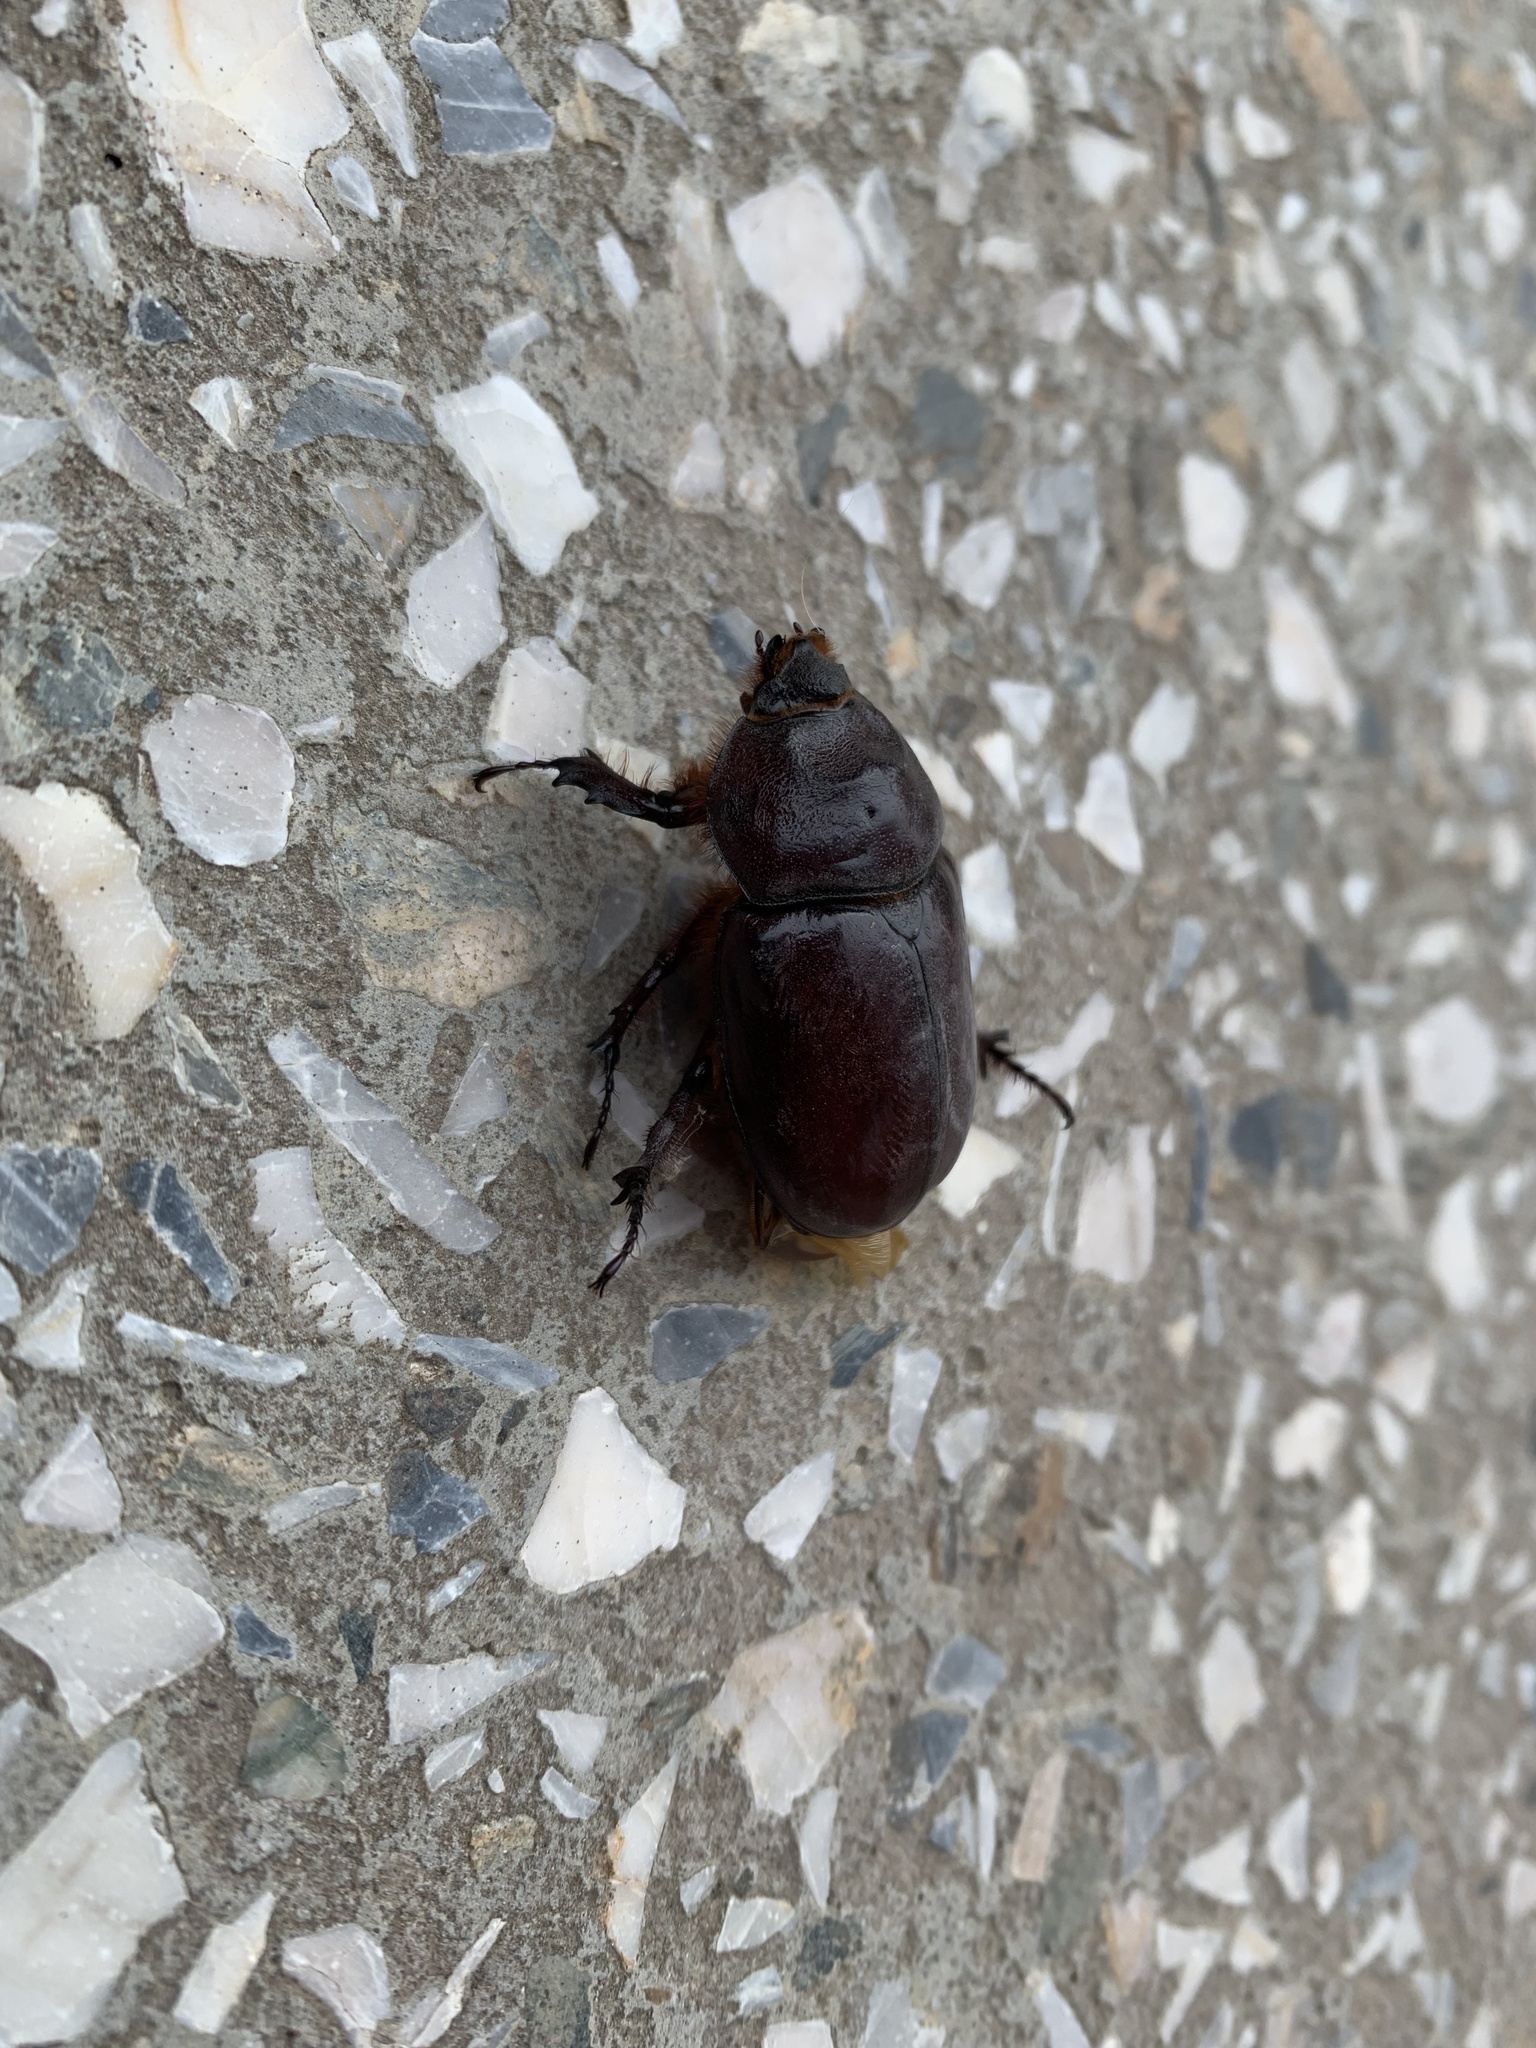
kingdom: Animalia
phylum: Arthropoda
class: Insecta
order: Coleoptera
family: Scarabaeidae
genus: Oryctes
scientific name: Oryctes nasicornis
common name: European rhinoceros beetle
